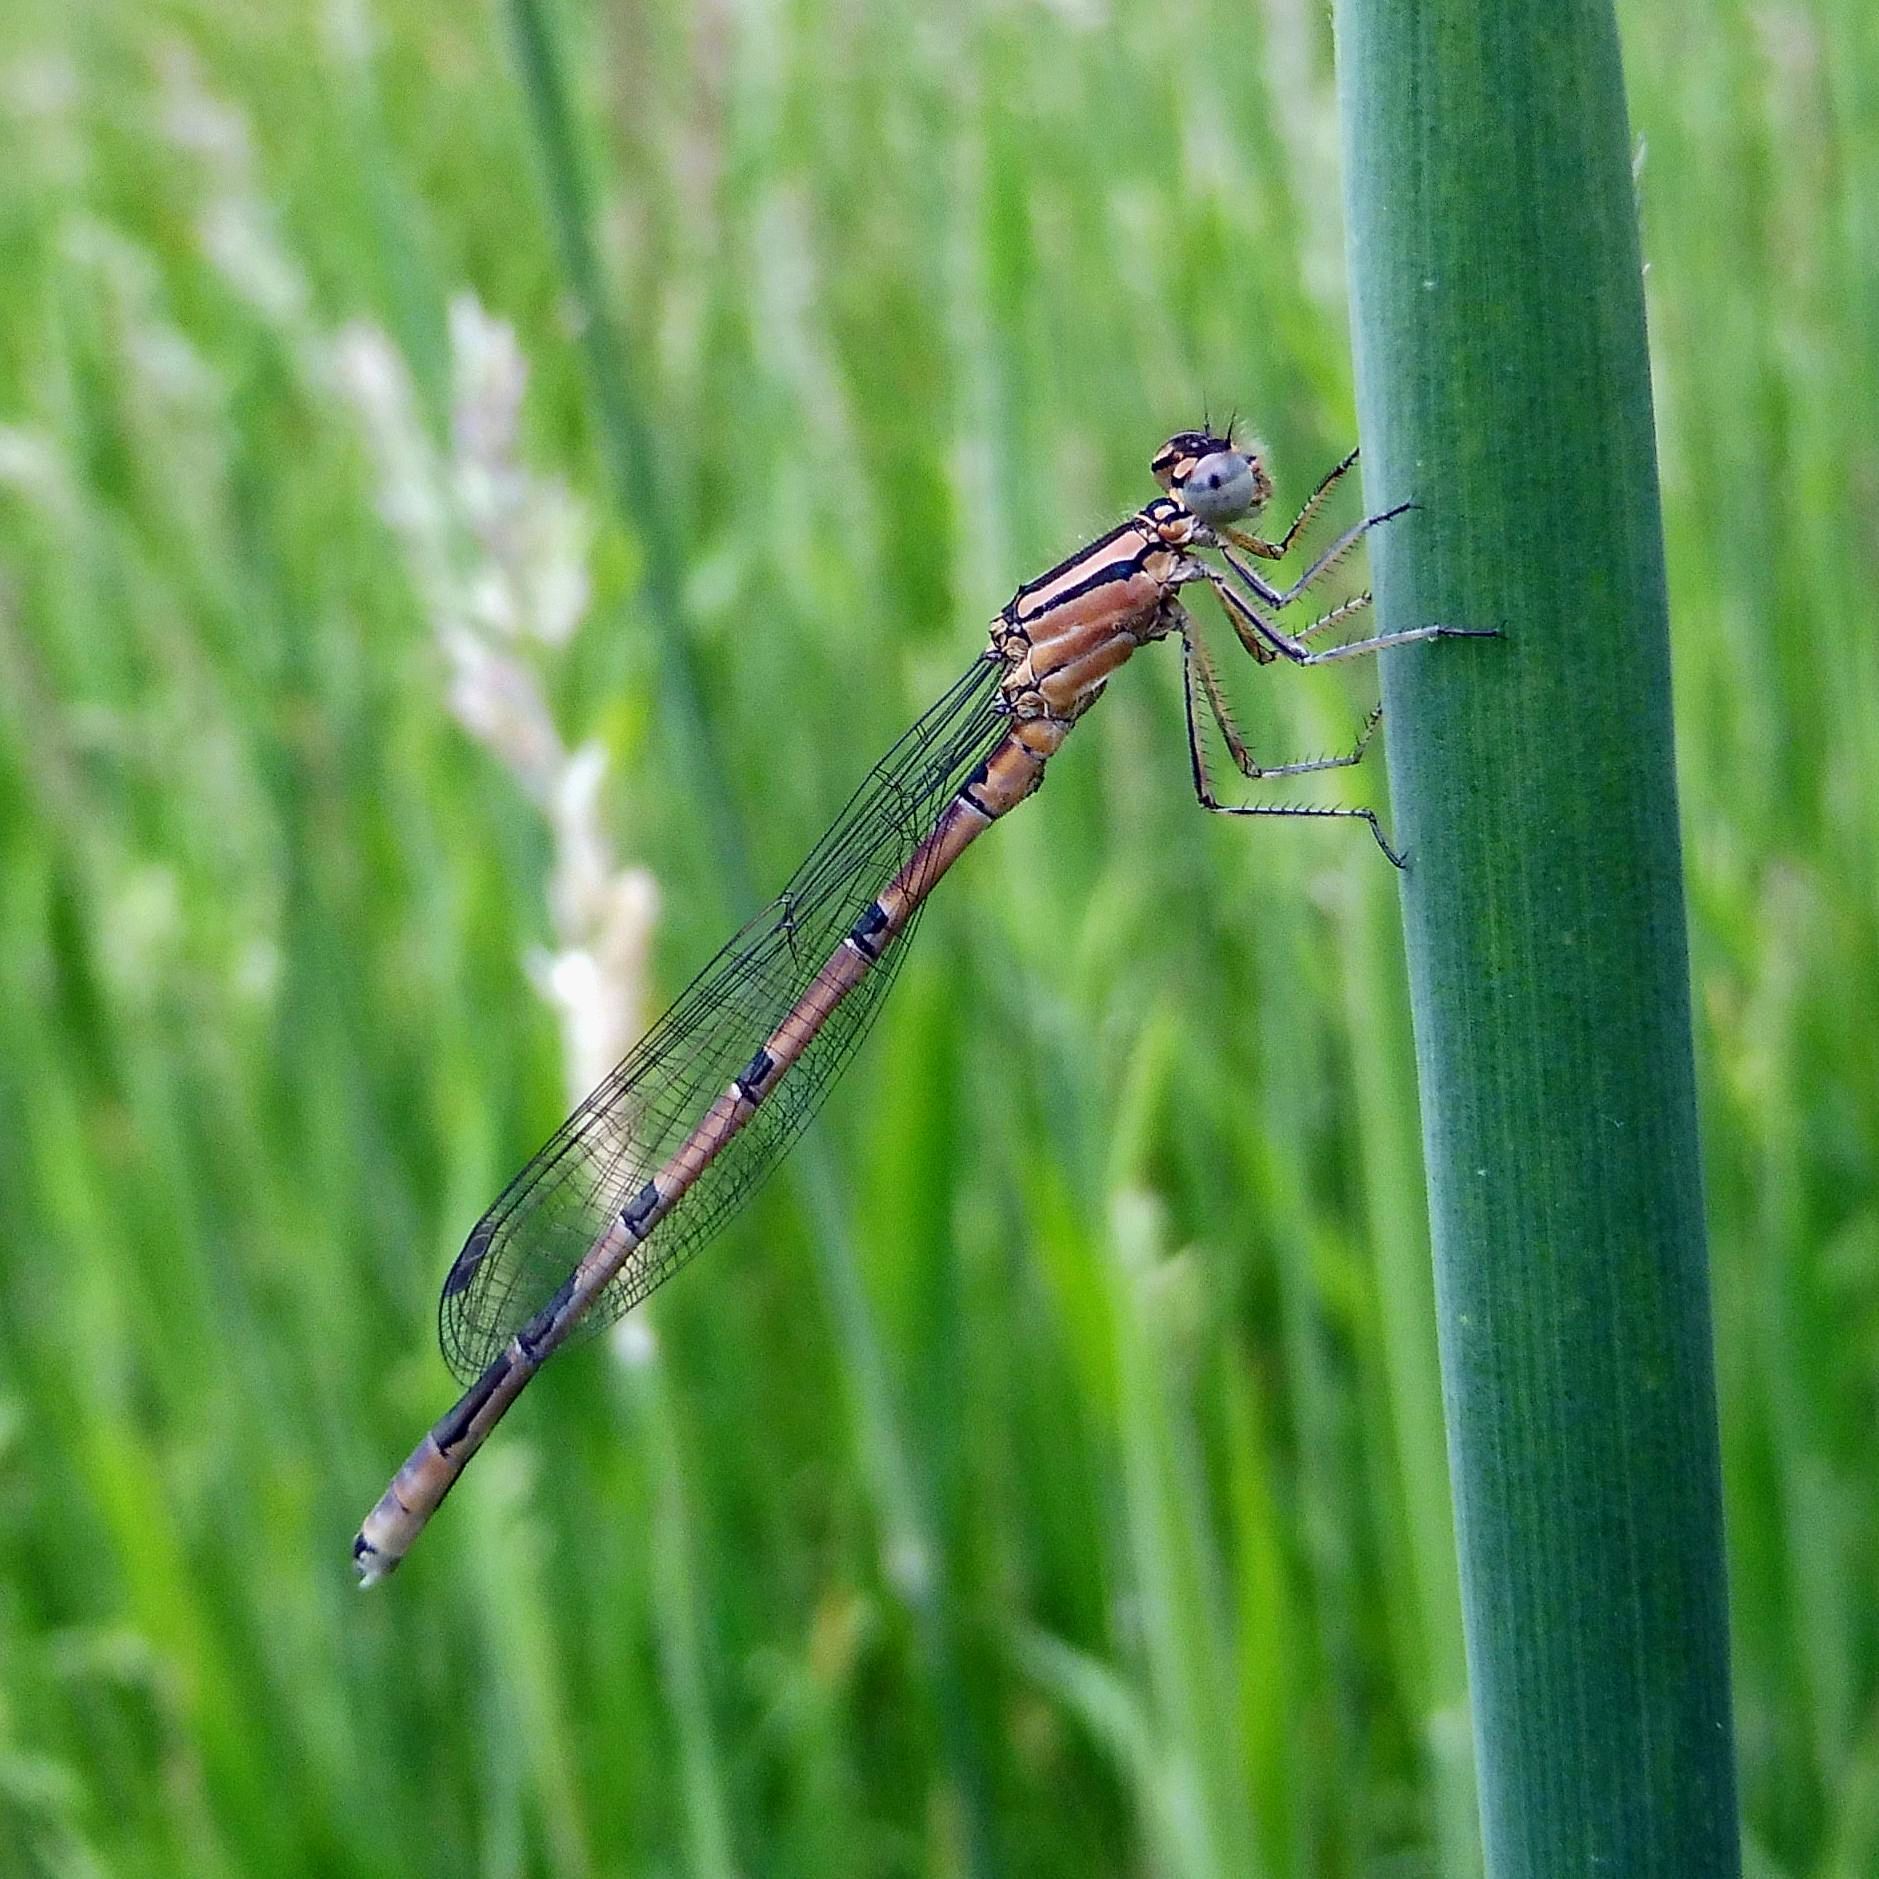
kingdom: Animalia
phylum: Arthropoda
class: Insecta
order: Odonata
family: Coenagrionidae
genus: Enallagma
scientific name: Enallagma cyathigerum
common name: Common blue damselfly
